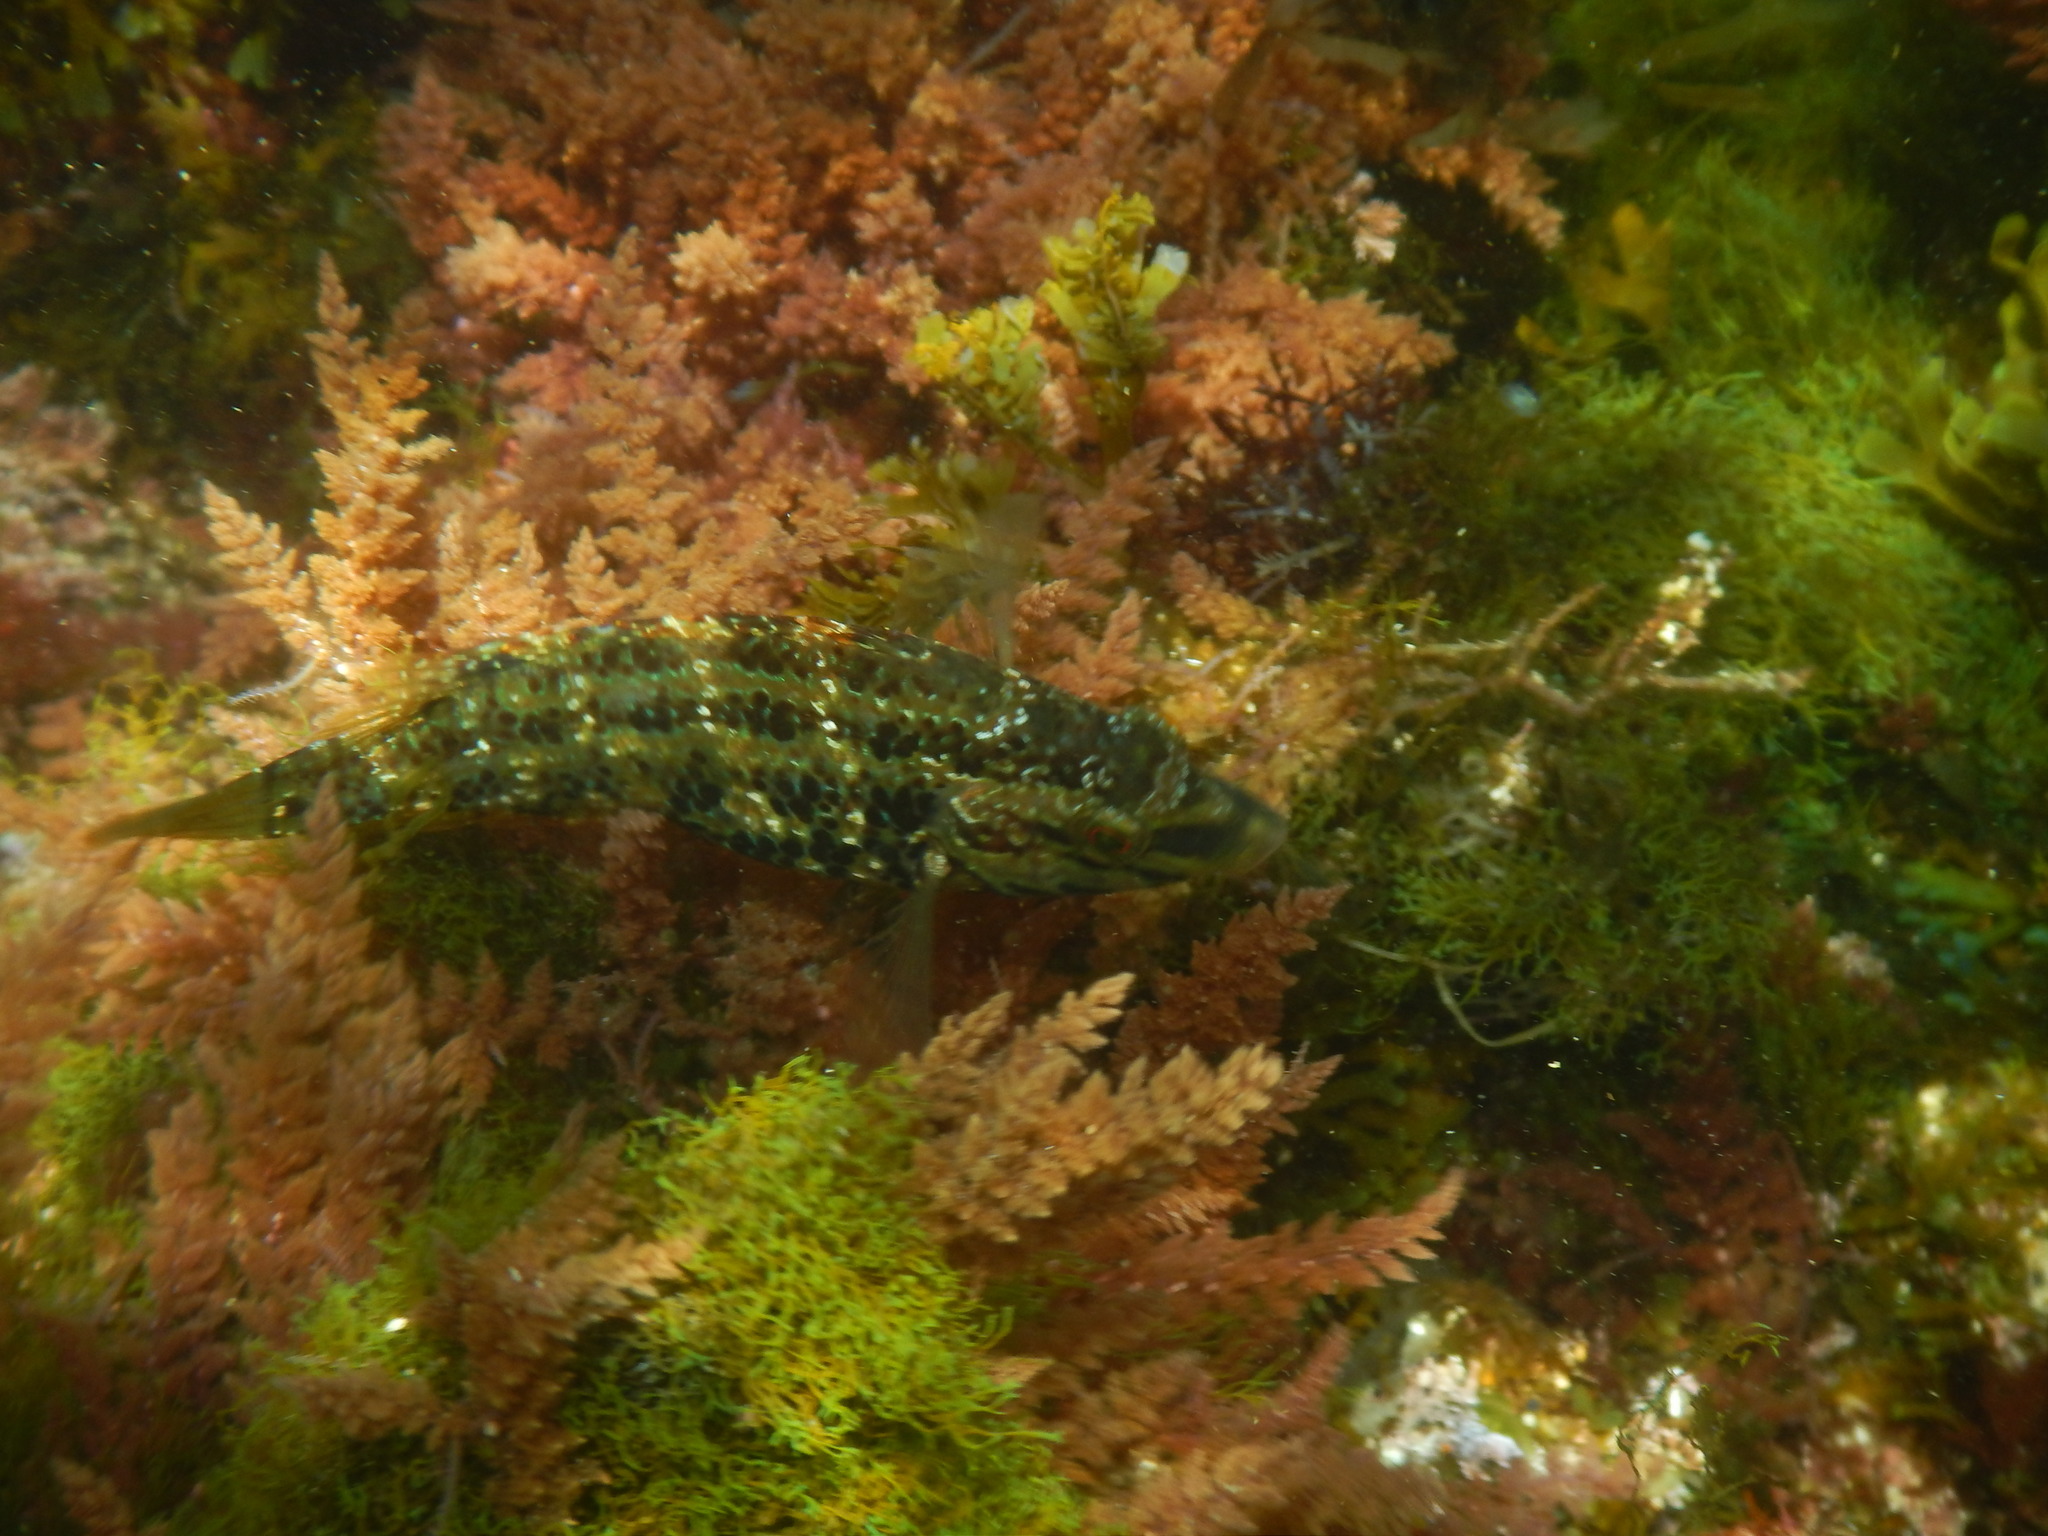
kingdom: Animalia
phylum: Chordata
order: Perciformes
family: Labridae
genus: Symphodus
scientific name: Symphodus roissali
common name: Five-spotted wrasse
